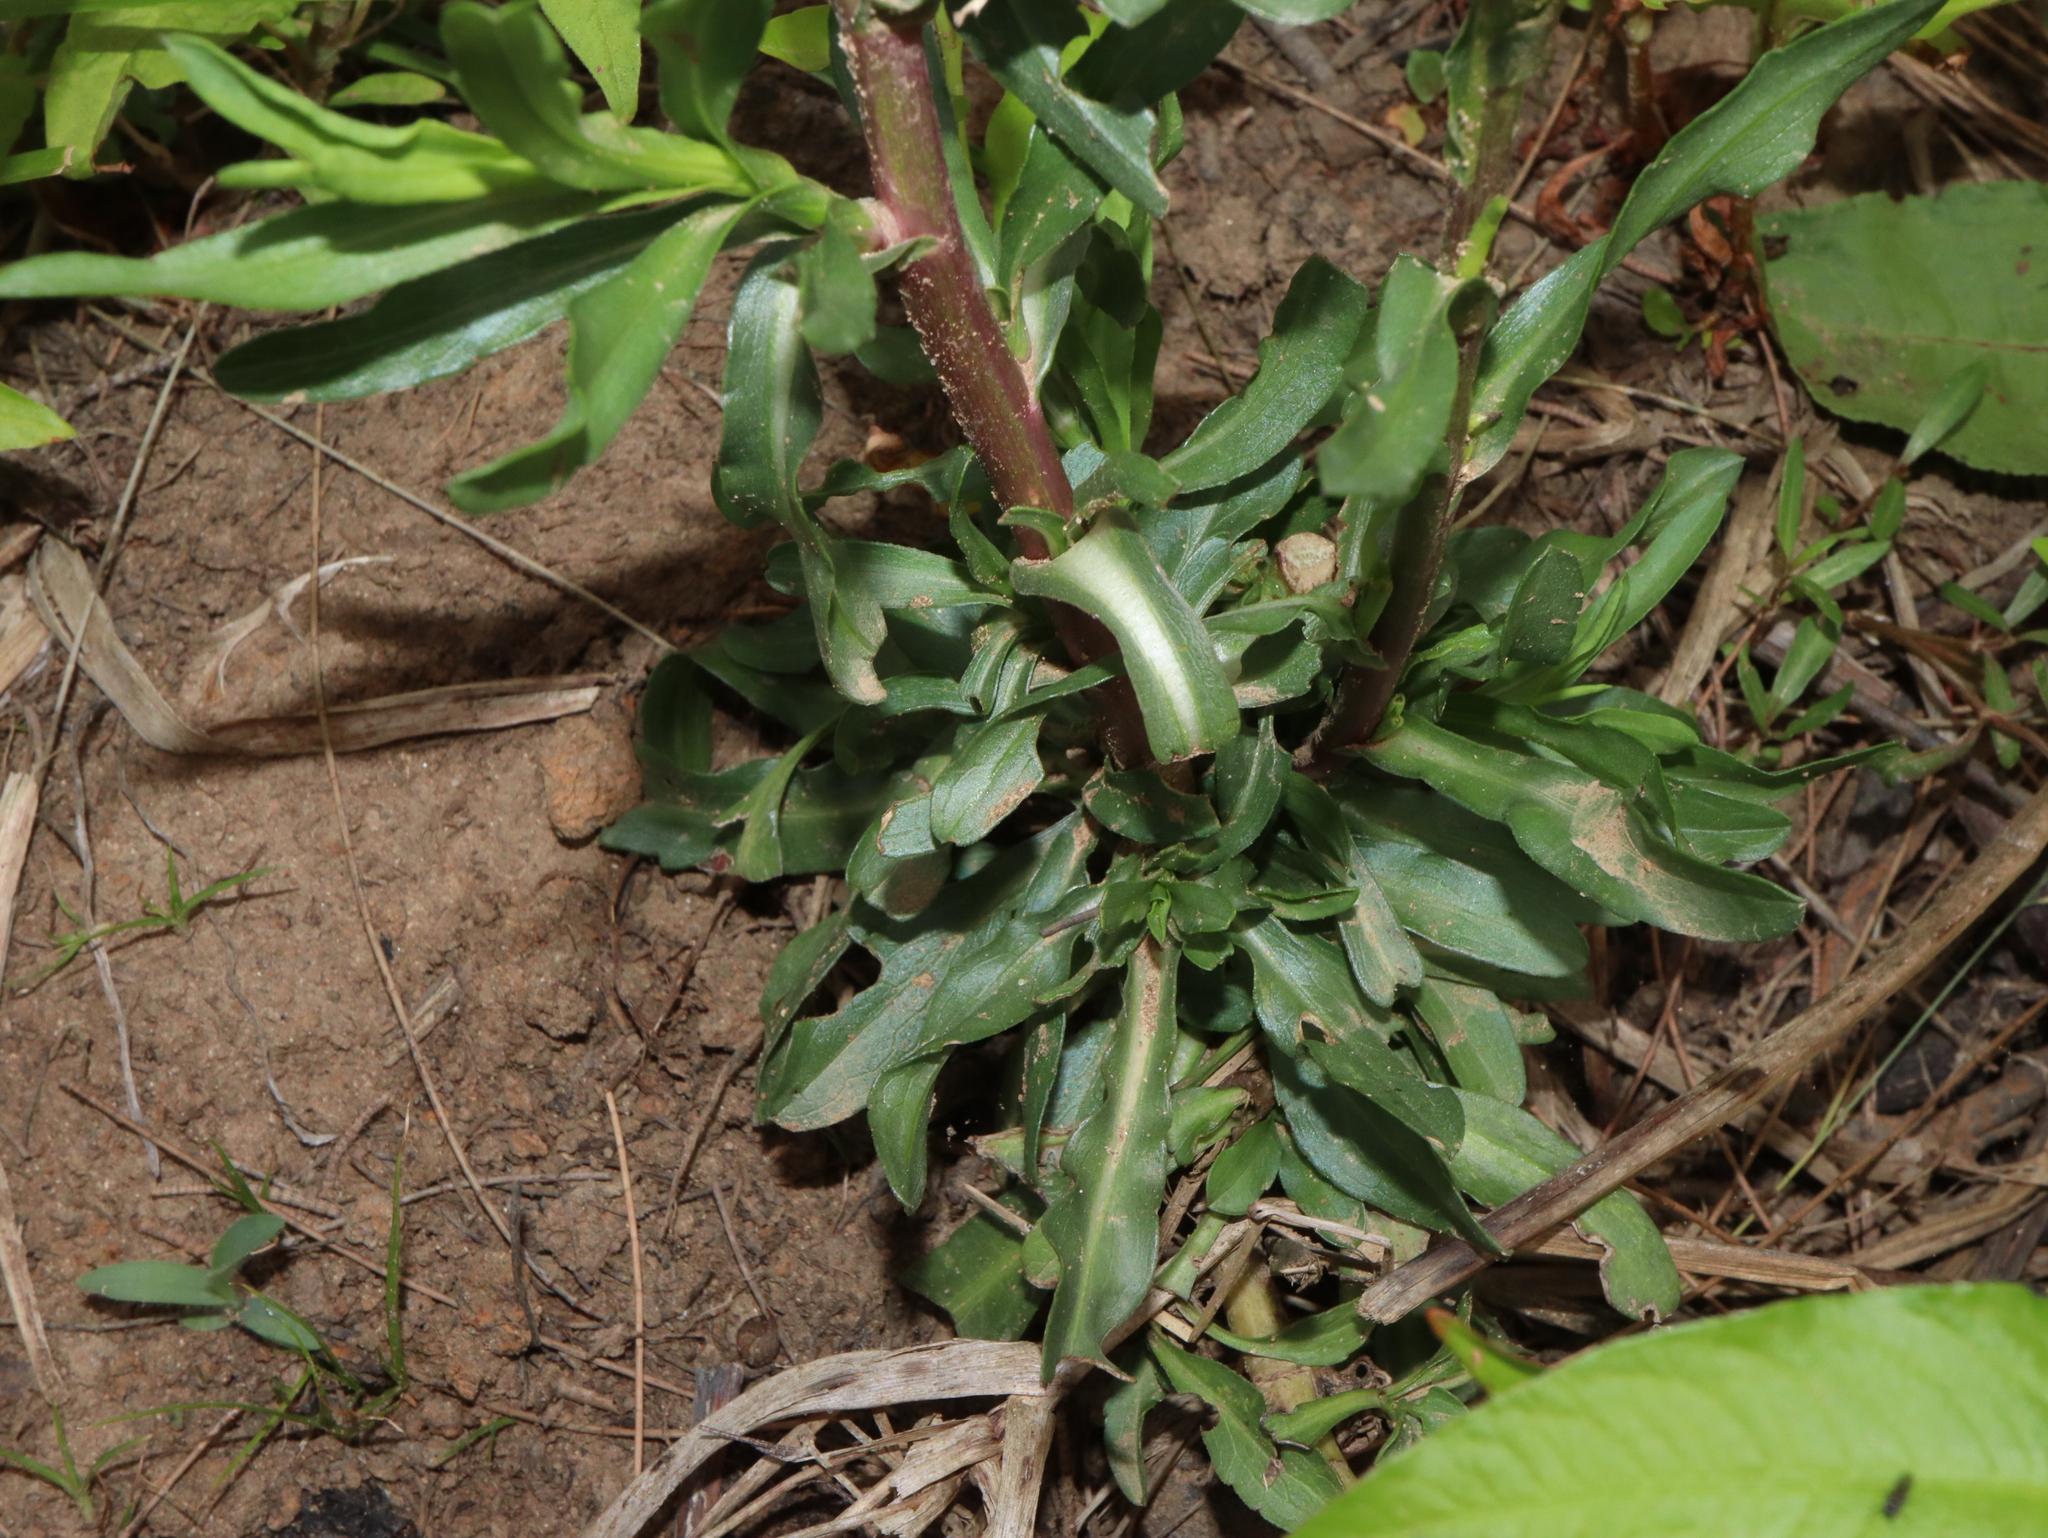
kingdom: Plantae
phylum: Tracheophyta
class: Magnoliopsida
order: Asterales
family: Asteraceae
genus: Symphyotrichum
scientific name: Symphyotrichum subulatum
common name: Annual saltmarsh aster
